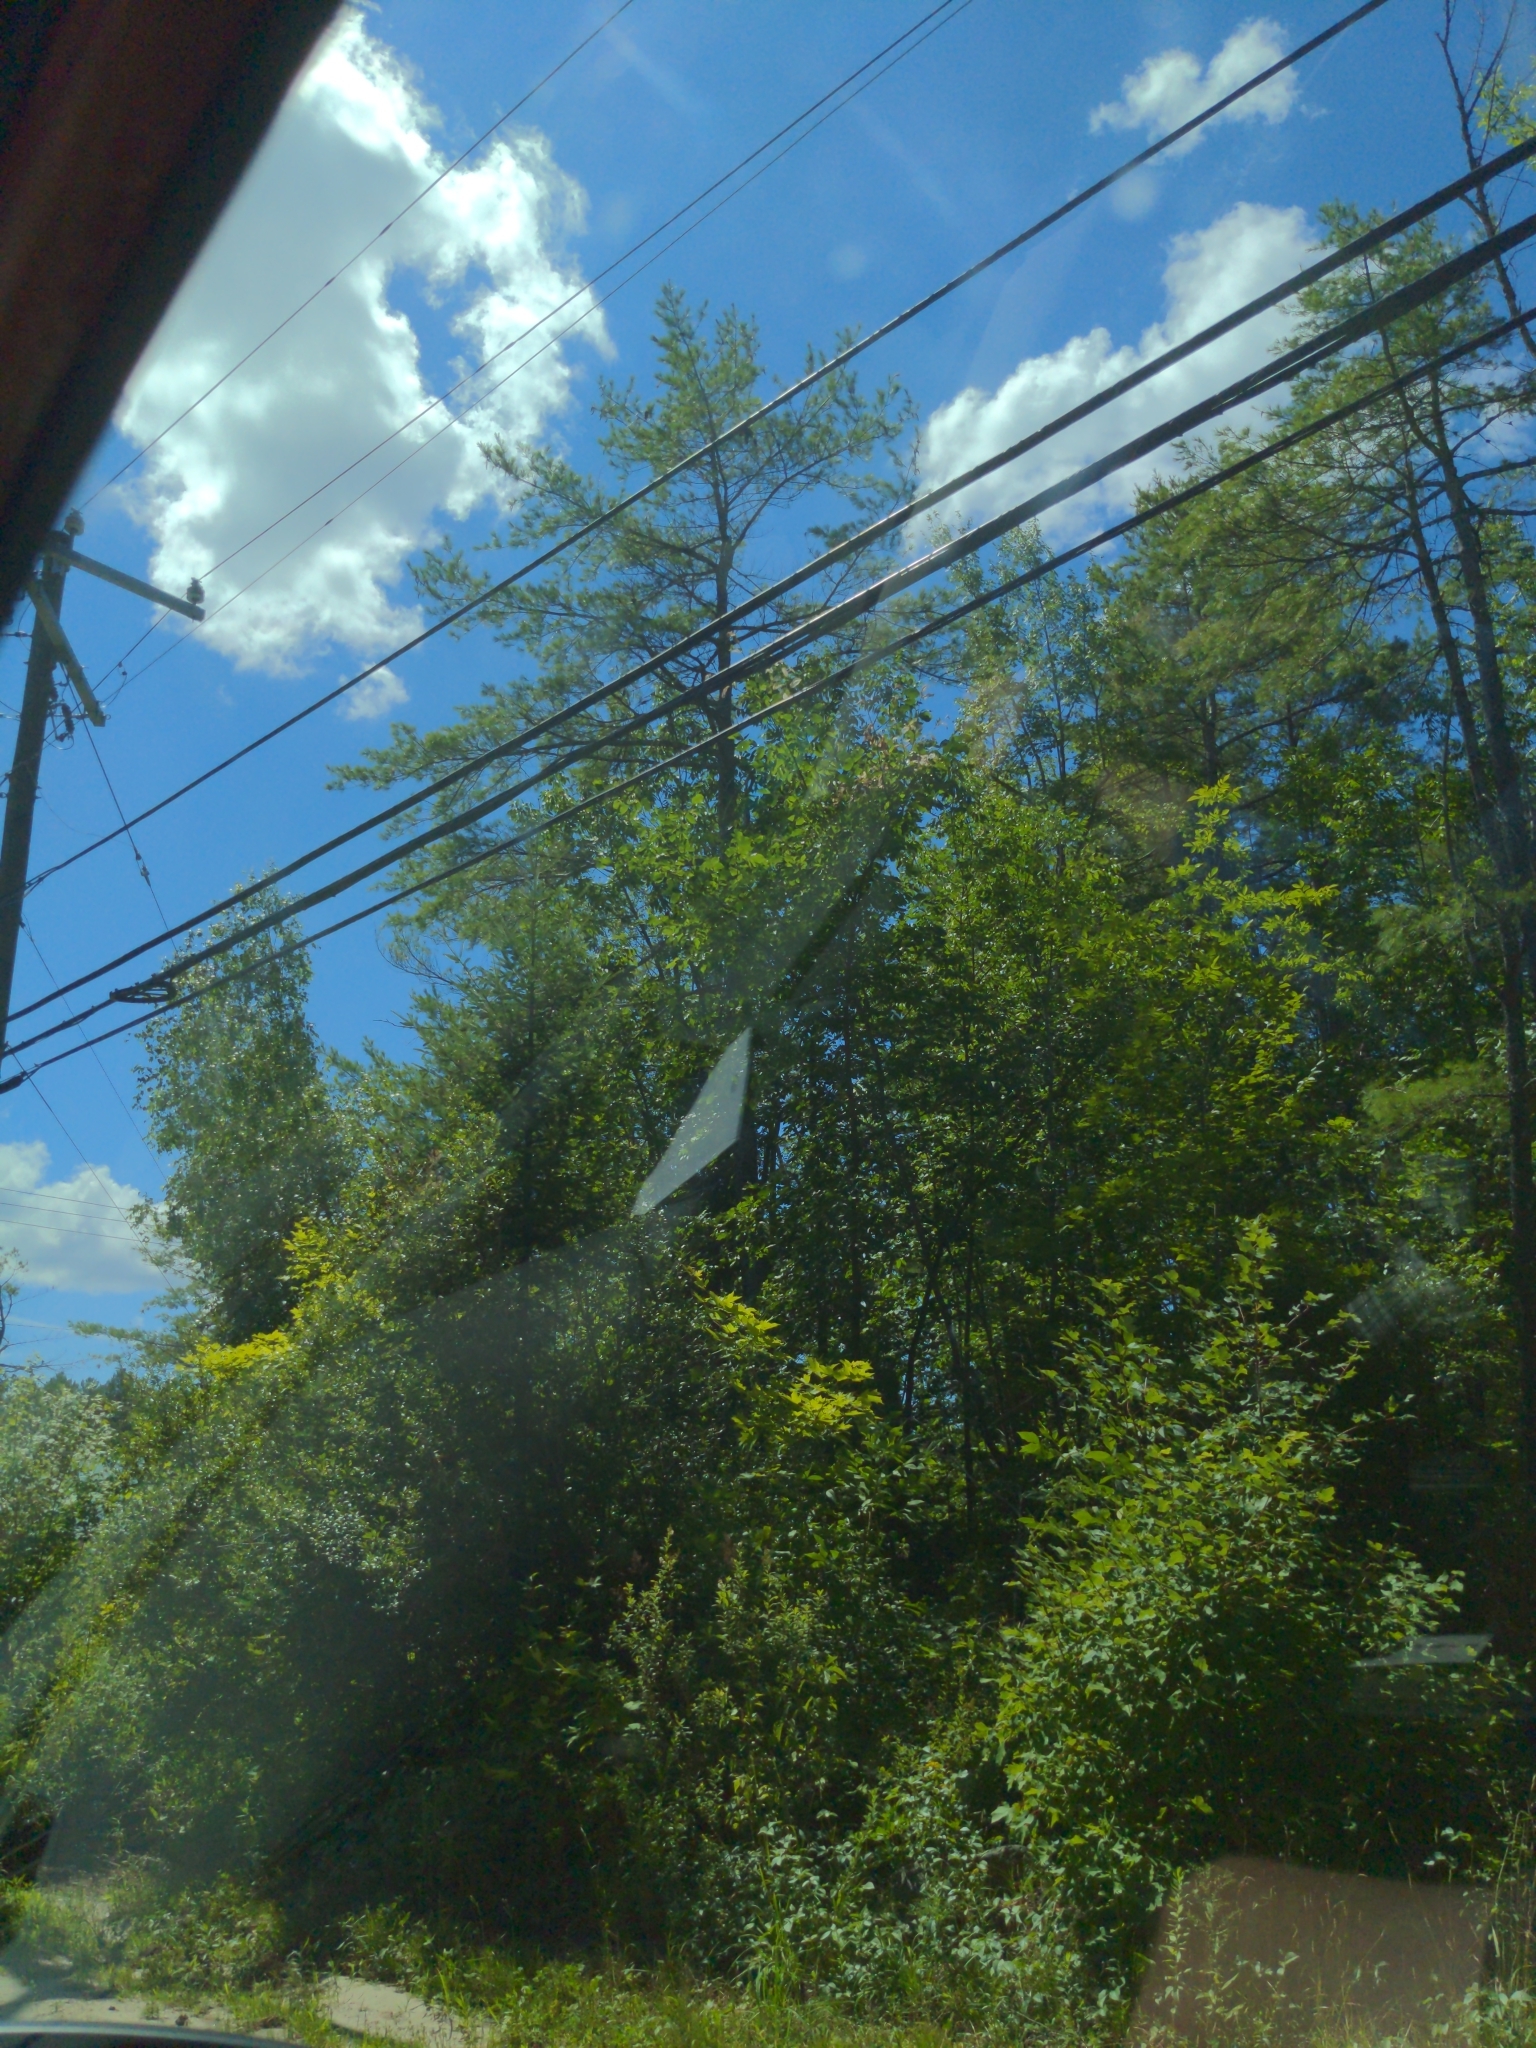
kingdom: Plantae
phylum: Tracheophyta
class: Pinopsida
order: Pinales
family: Pinaceae
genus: Pinus
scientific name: Pinus strobus
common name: Weymouth pine
